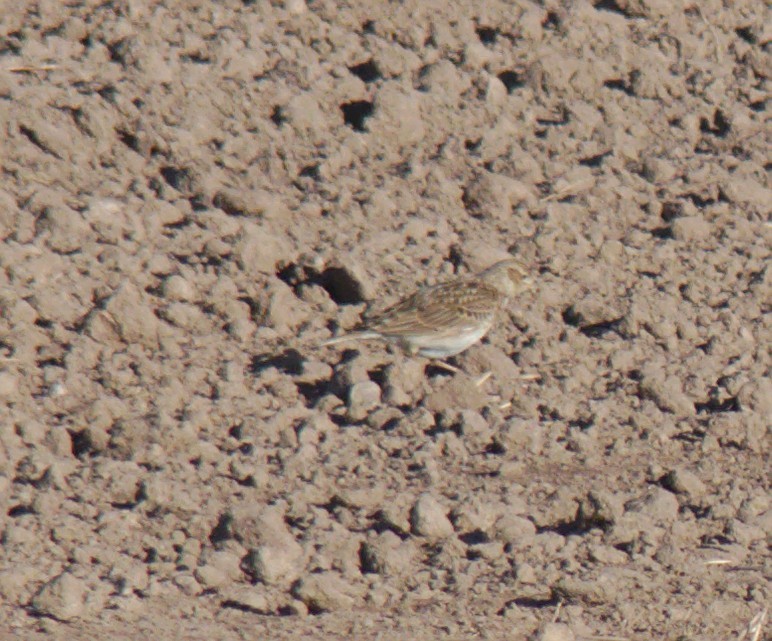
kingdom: Animalia
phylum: Chordata
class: Aves
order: Passeriformes
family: Alaudidae
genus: Alauda
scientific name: Alauda arvensis
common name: Eurasian skylark
